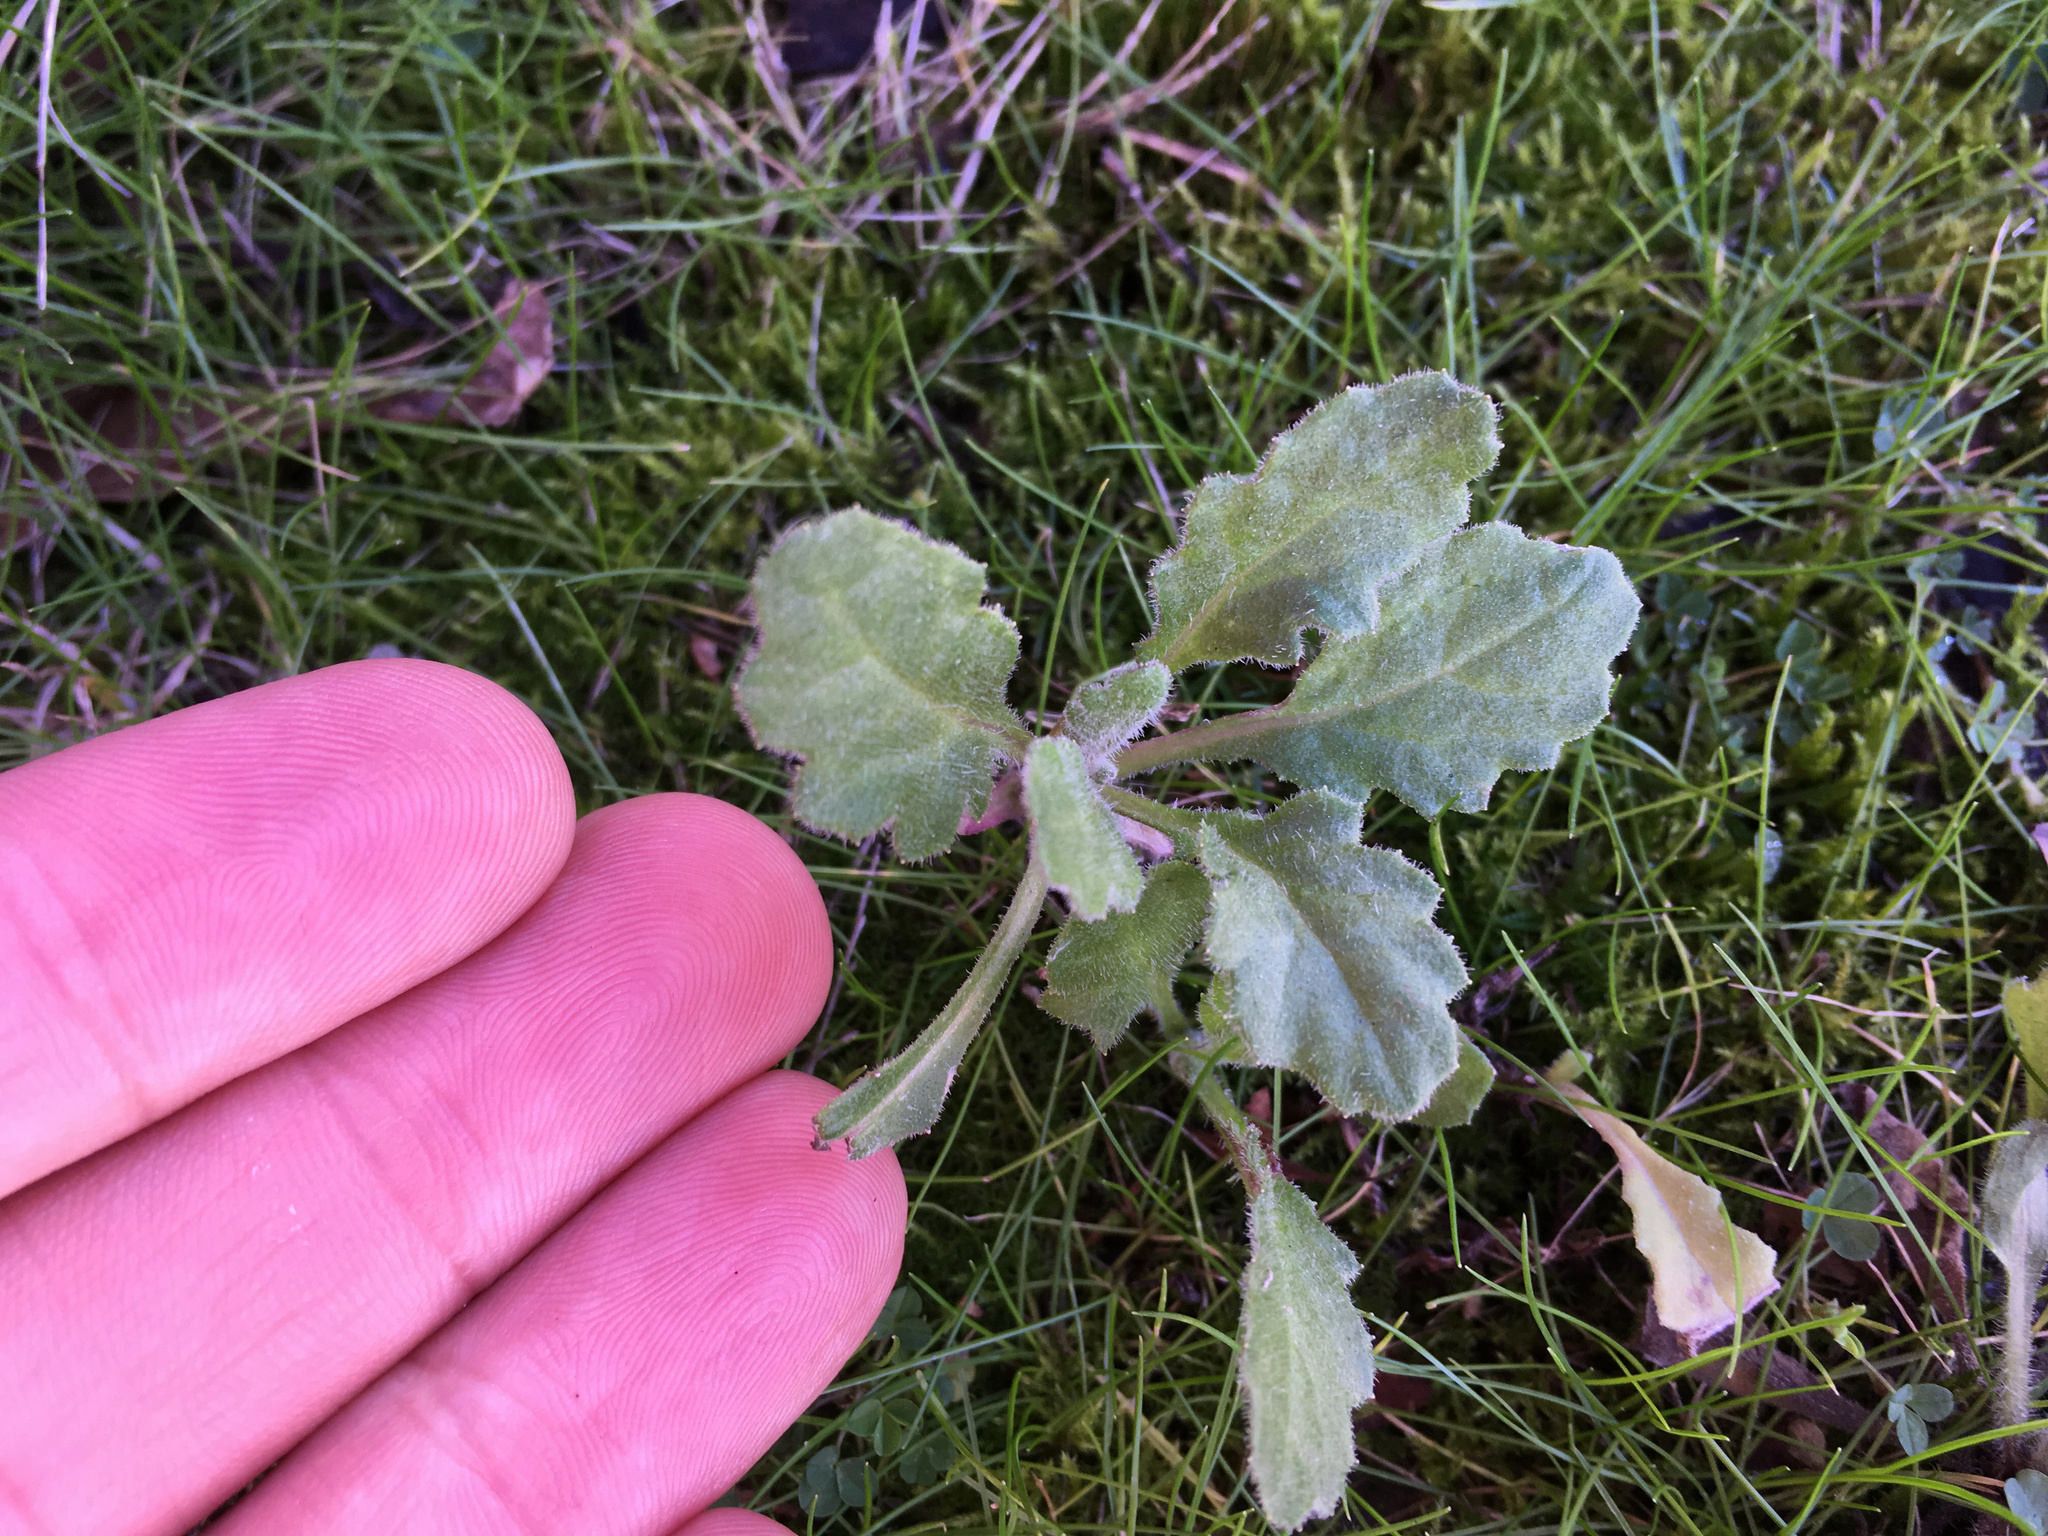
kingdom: Plantae
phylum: Tracheophyta
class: Magnoliopsida
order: Asterales
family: Asteraceae
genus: Senecio
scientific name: Senecio glomeratus
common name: Cutleaf burnweed
